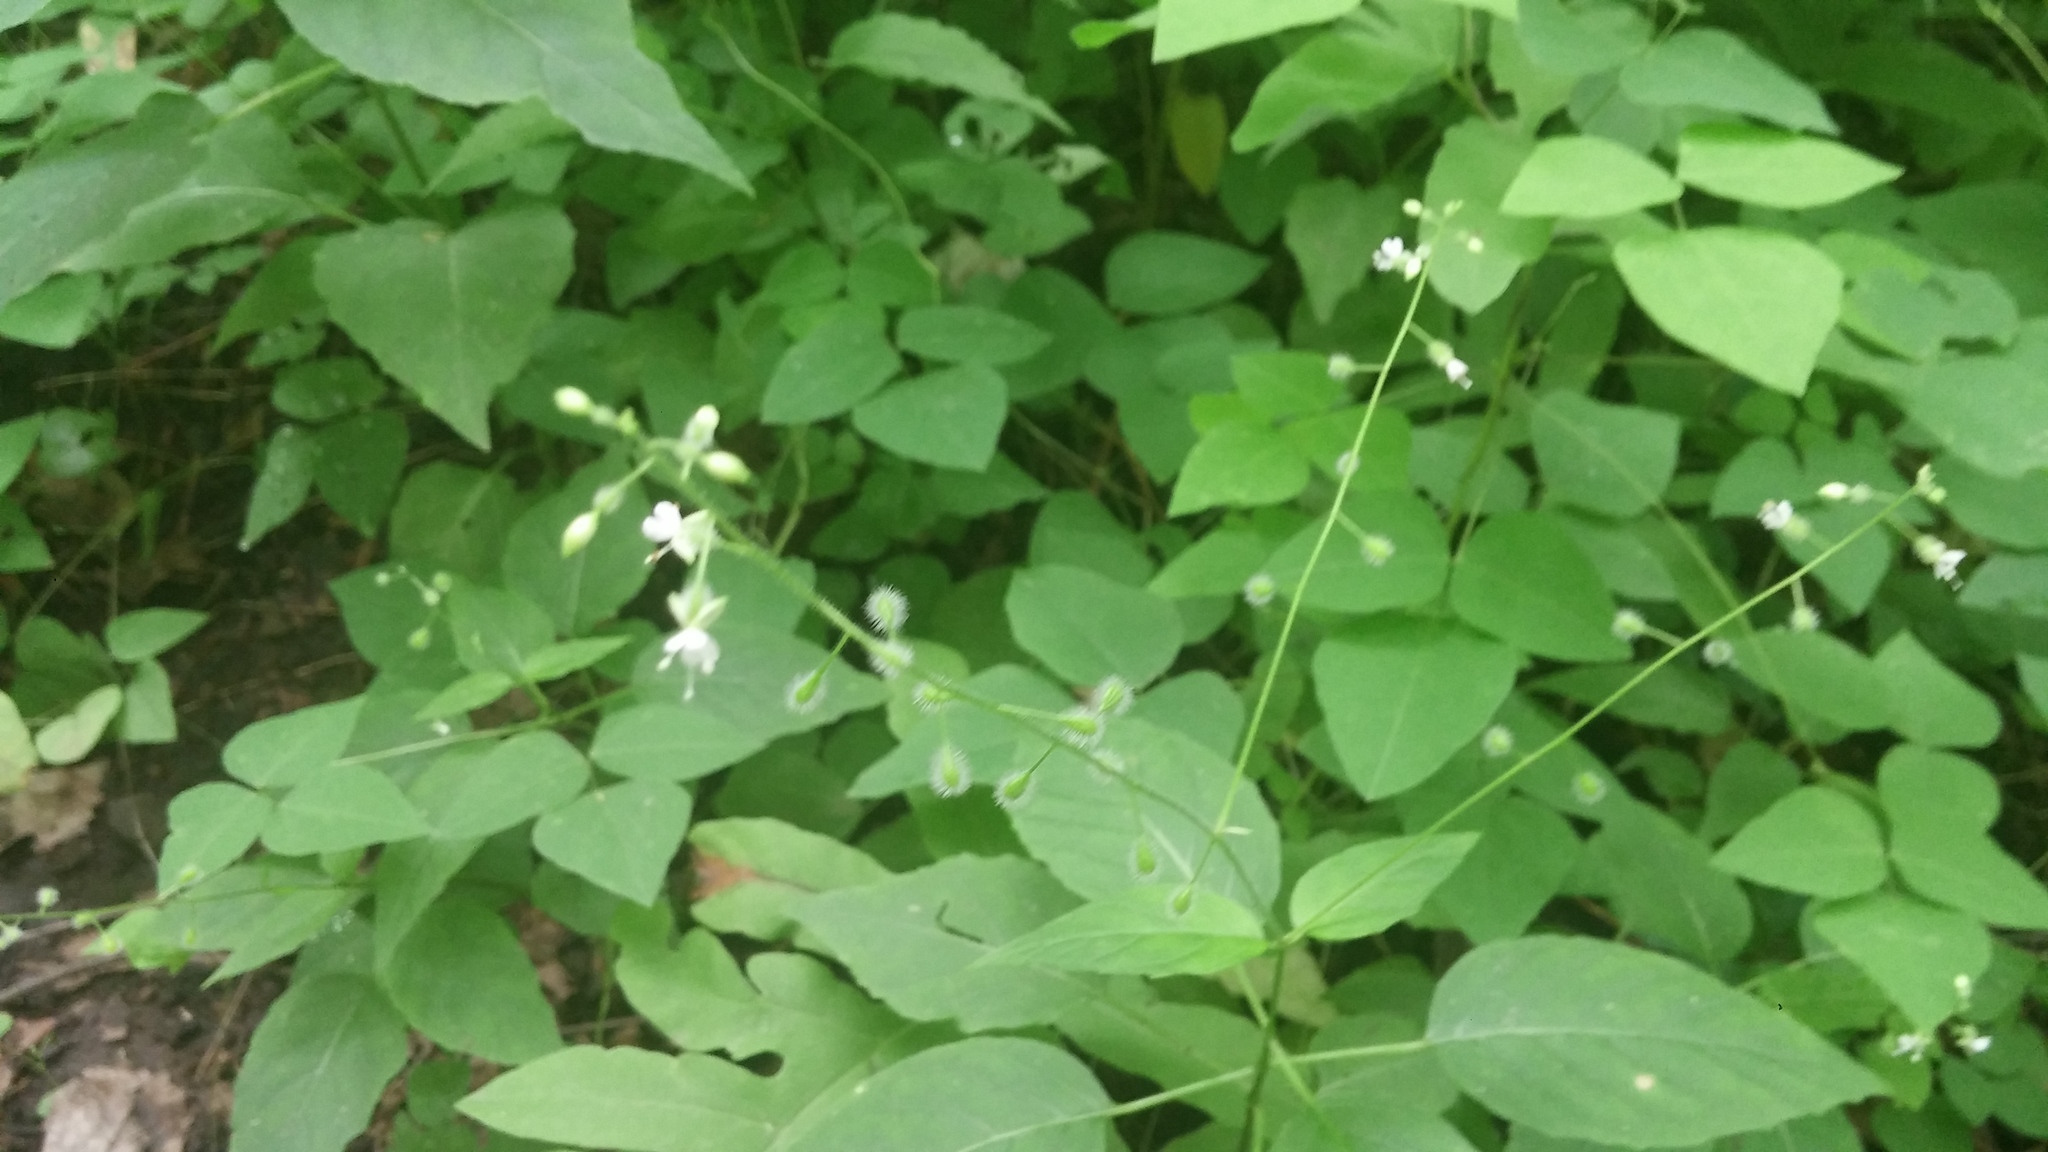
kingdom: Plantae
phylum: Tracheophyta
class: Magnoliopsida
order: Myrtales
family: Onagraceae
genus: Circaea
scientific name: Circaea canadensis
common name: Broad-leaved enchanter's nightshade
